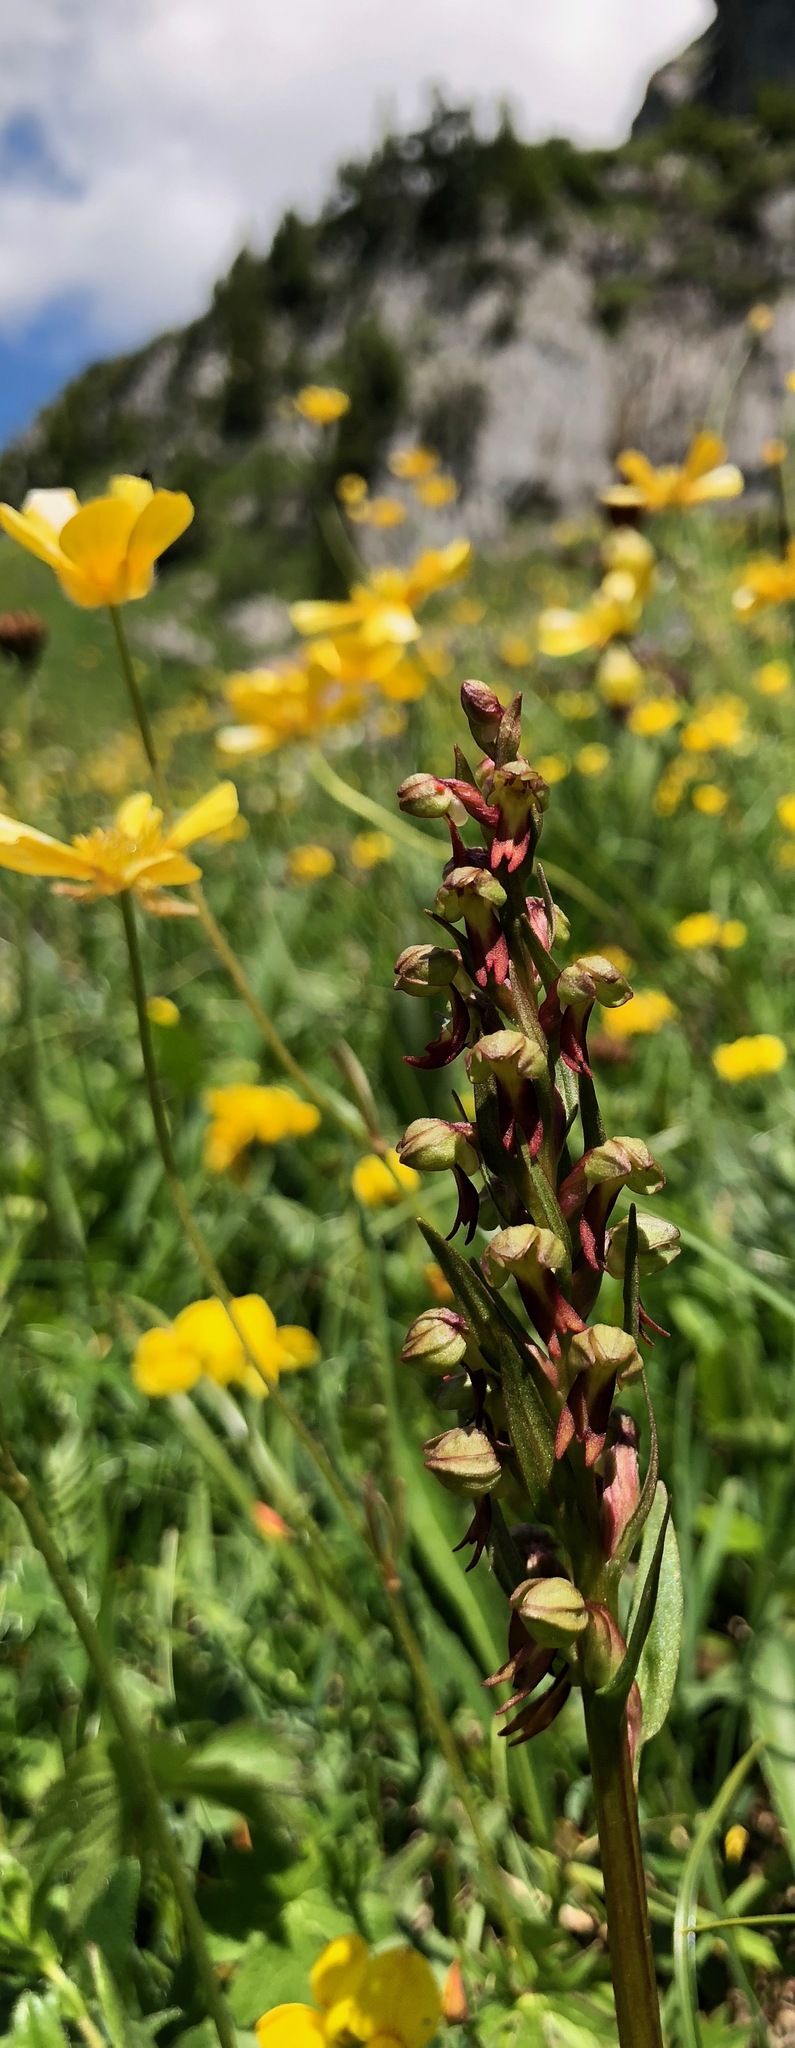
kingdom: Plantae
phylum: Tracheophyta
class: Liliopsida
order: Asparagales
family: Orchidaceae
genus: Dactylorhiza
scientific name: Dactylorhiza viridis
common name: Longbract frog orchid
